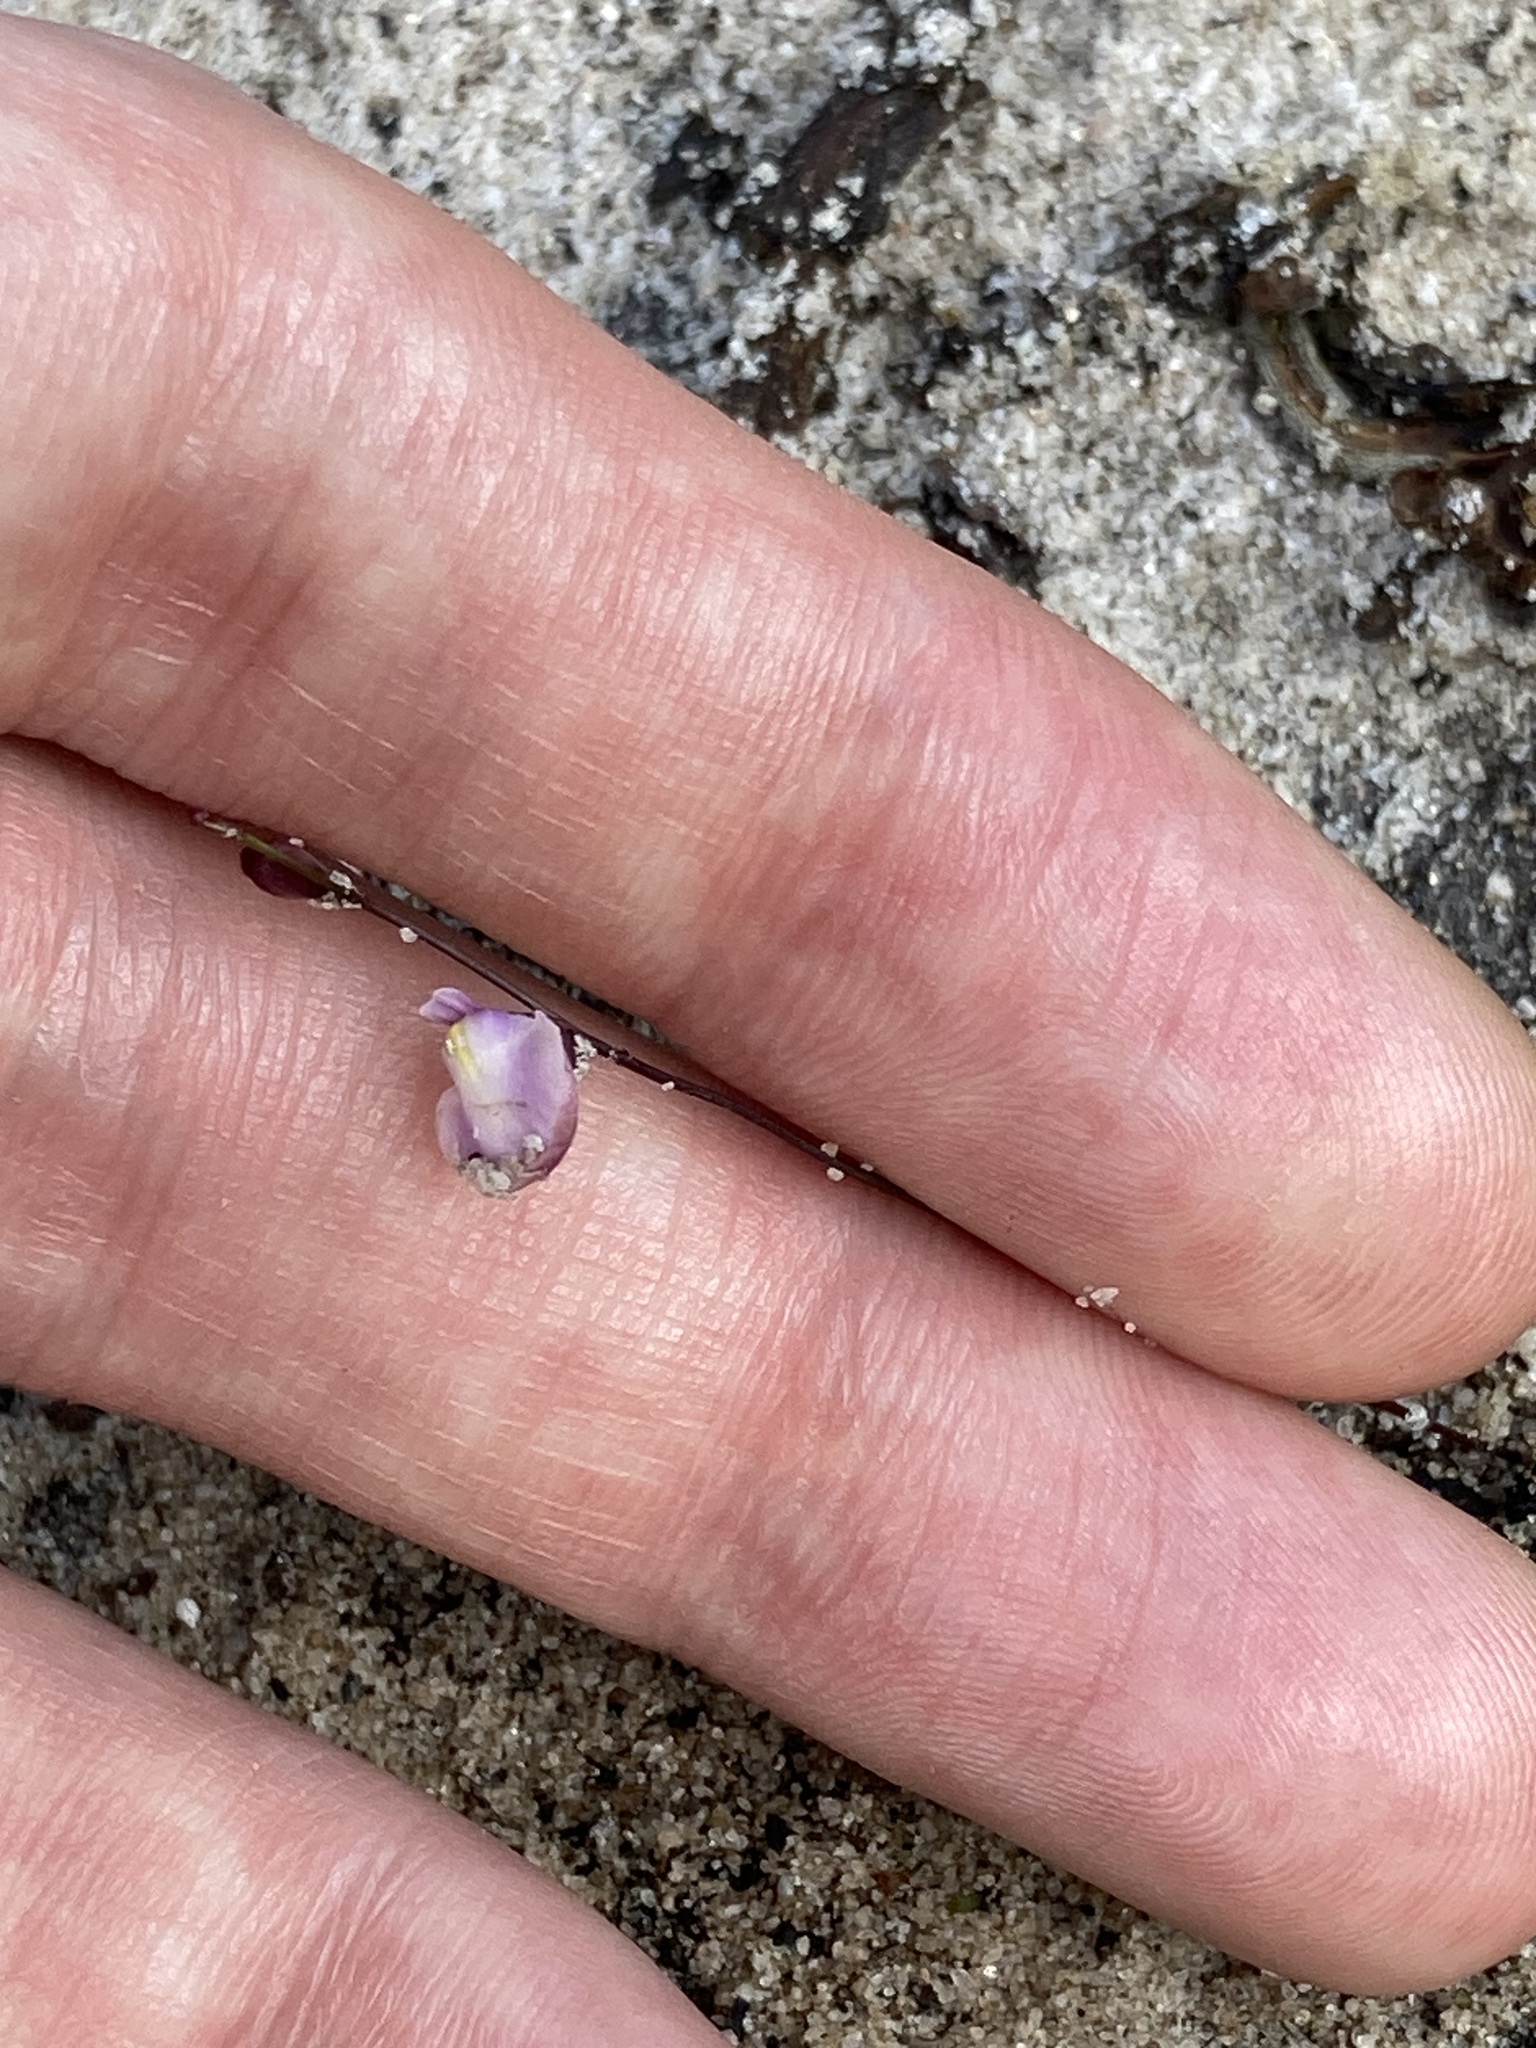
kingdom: Plantae
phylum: Tracheophyta
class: Magnoliopsida
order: Lamiales
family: Lentibulariaceae
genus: Utricularia
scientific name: Utricularia lateriflora
